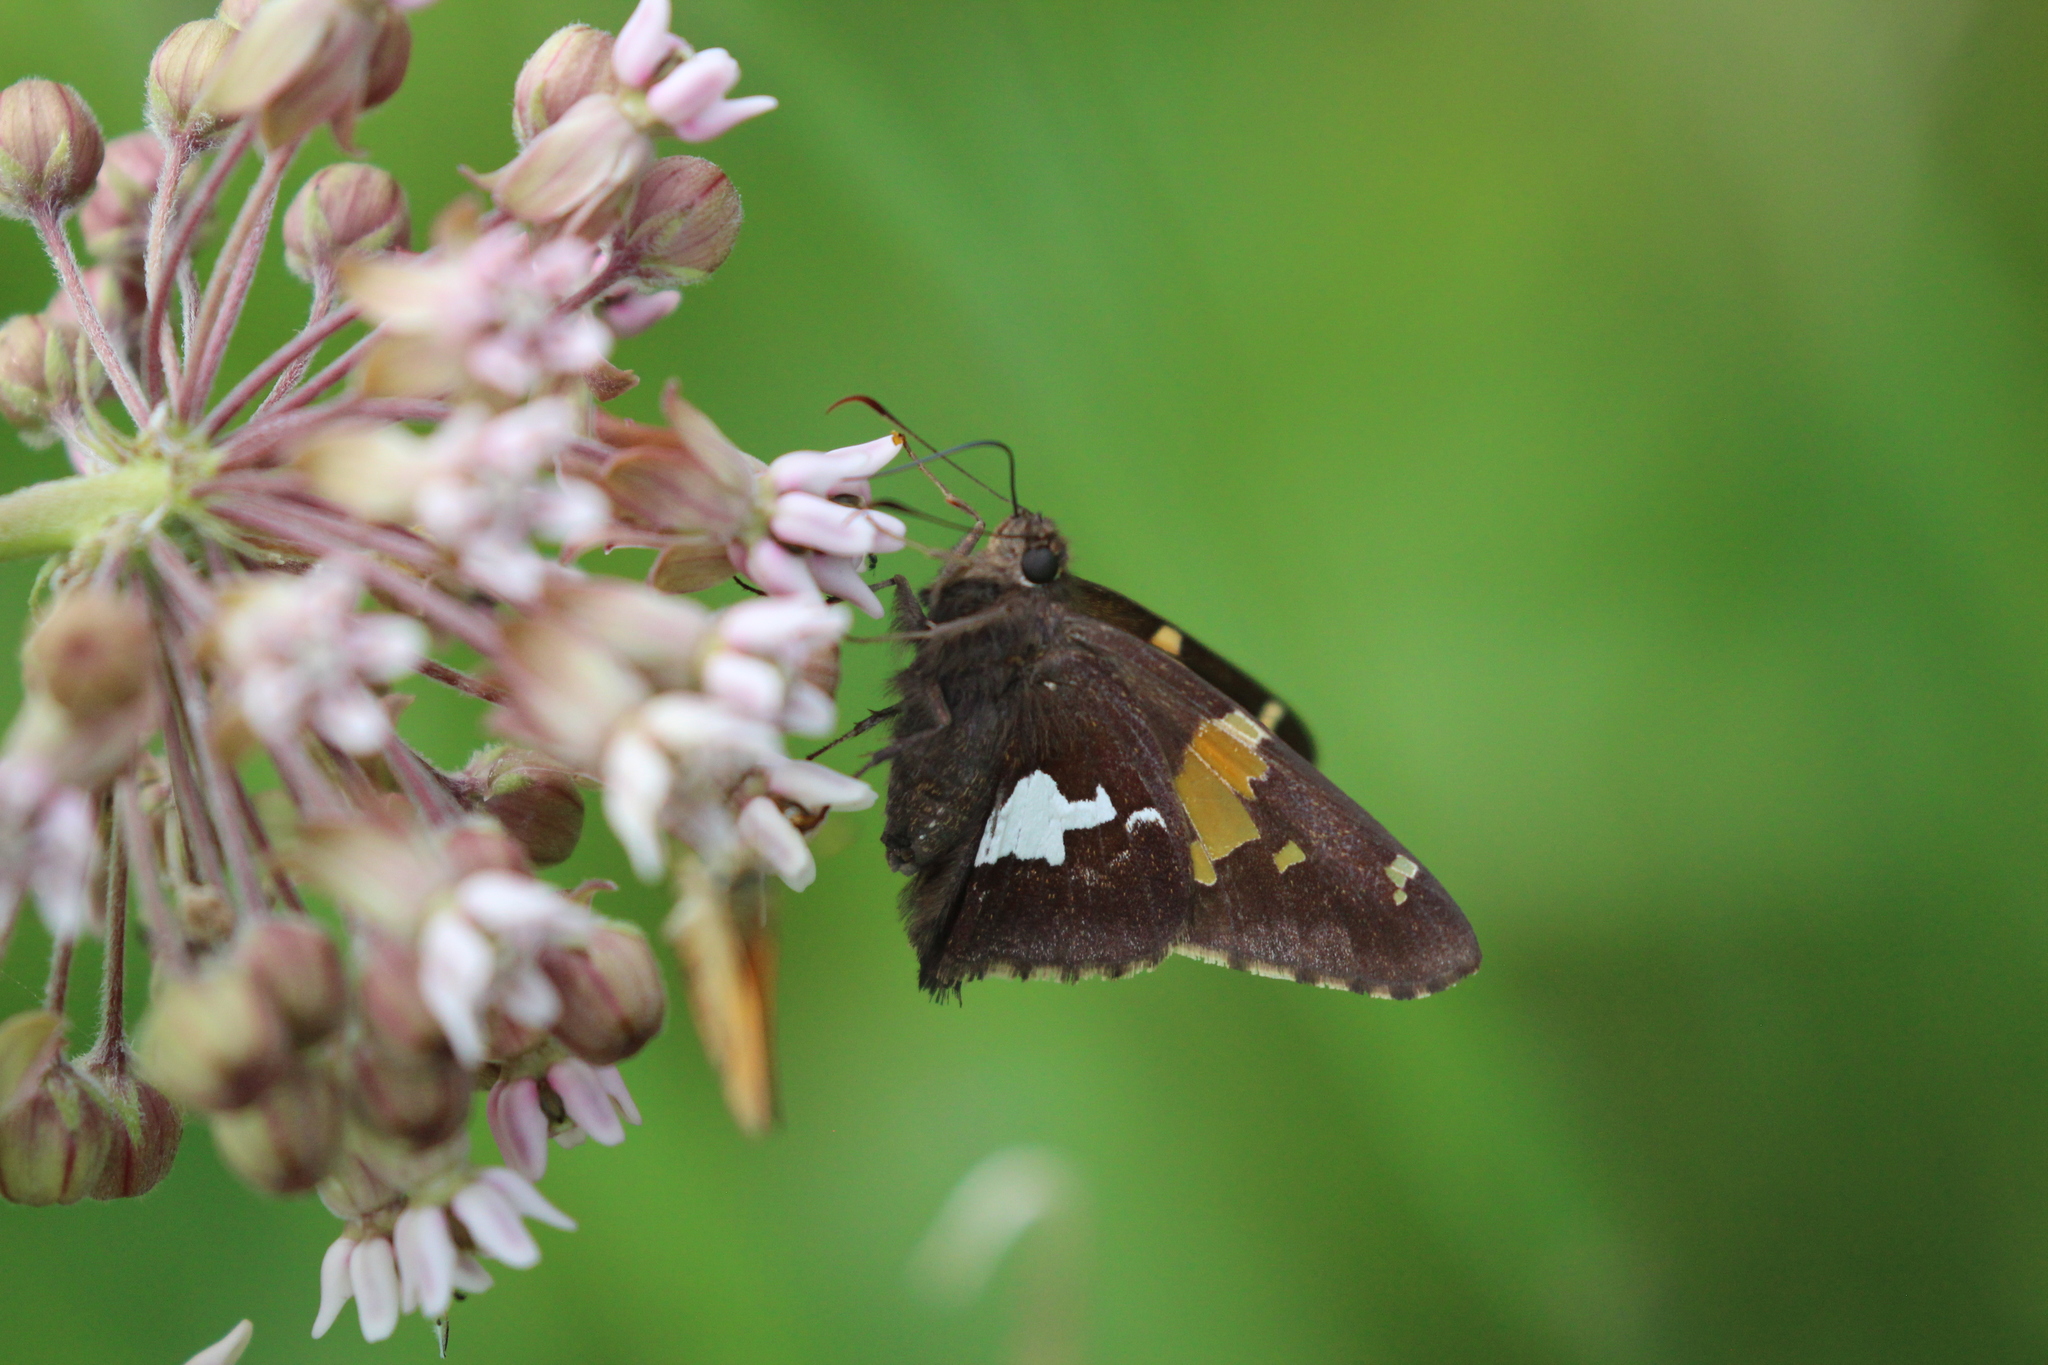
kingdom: Animalia
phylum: Arthropoda
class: Insecta
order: Lepidoptera
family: Hesperiidae
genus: Epargyreus
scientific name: Epargyreus clarus
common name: Silver-spotted skipper
